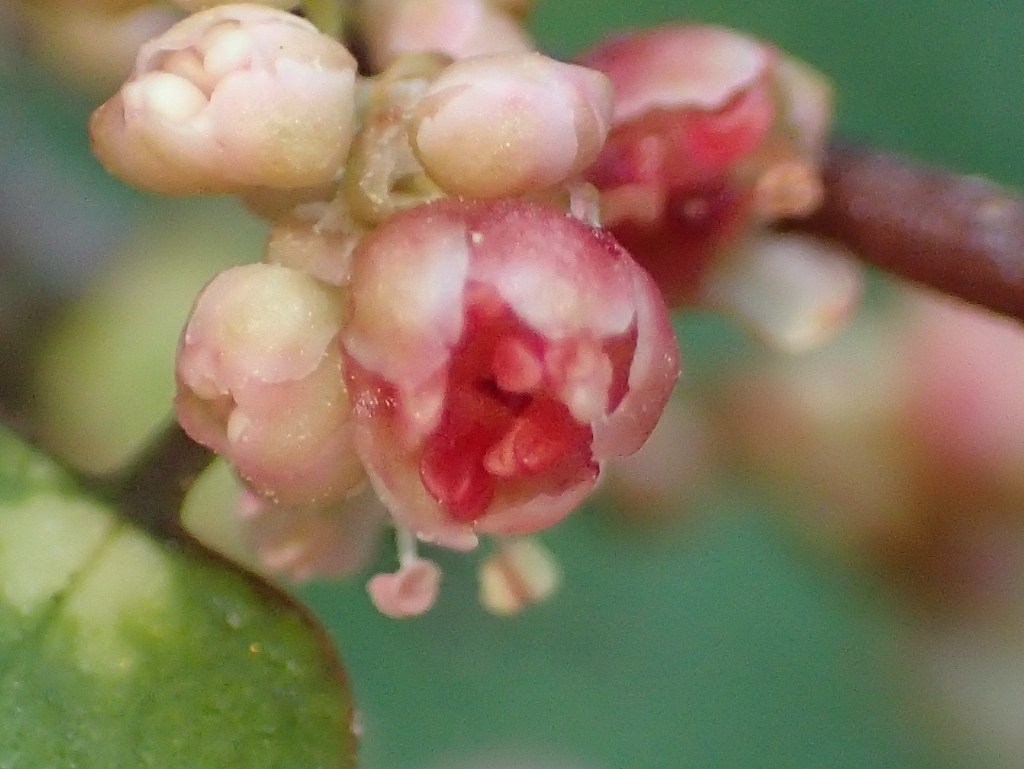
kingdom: Plantae
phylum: Tracheophyta
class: Magnoliopsida
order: Caryophyllales
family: Polygonaceae
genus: Muehlenbeckia
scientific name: Muehlenbeckia complexa
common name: Wireplant
